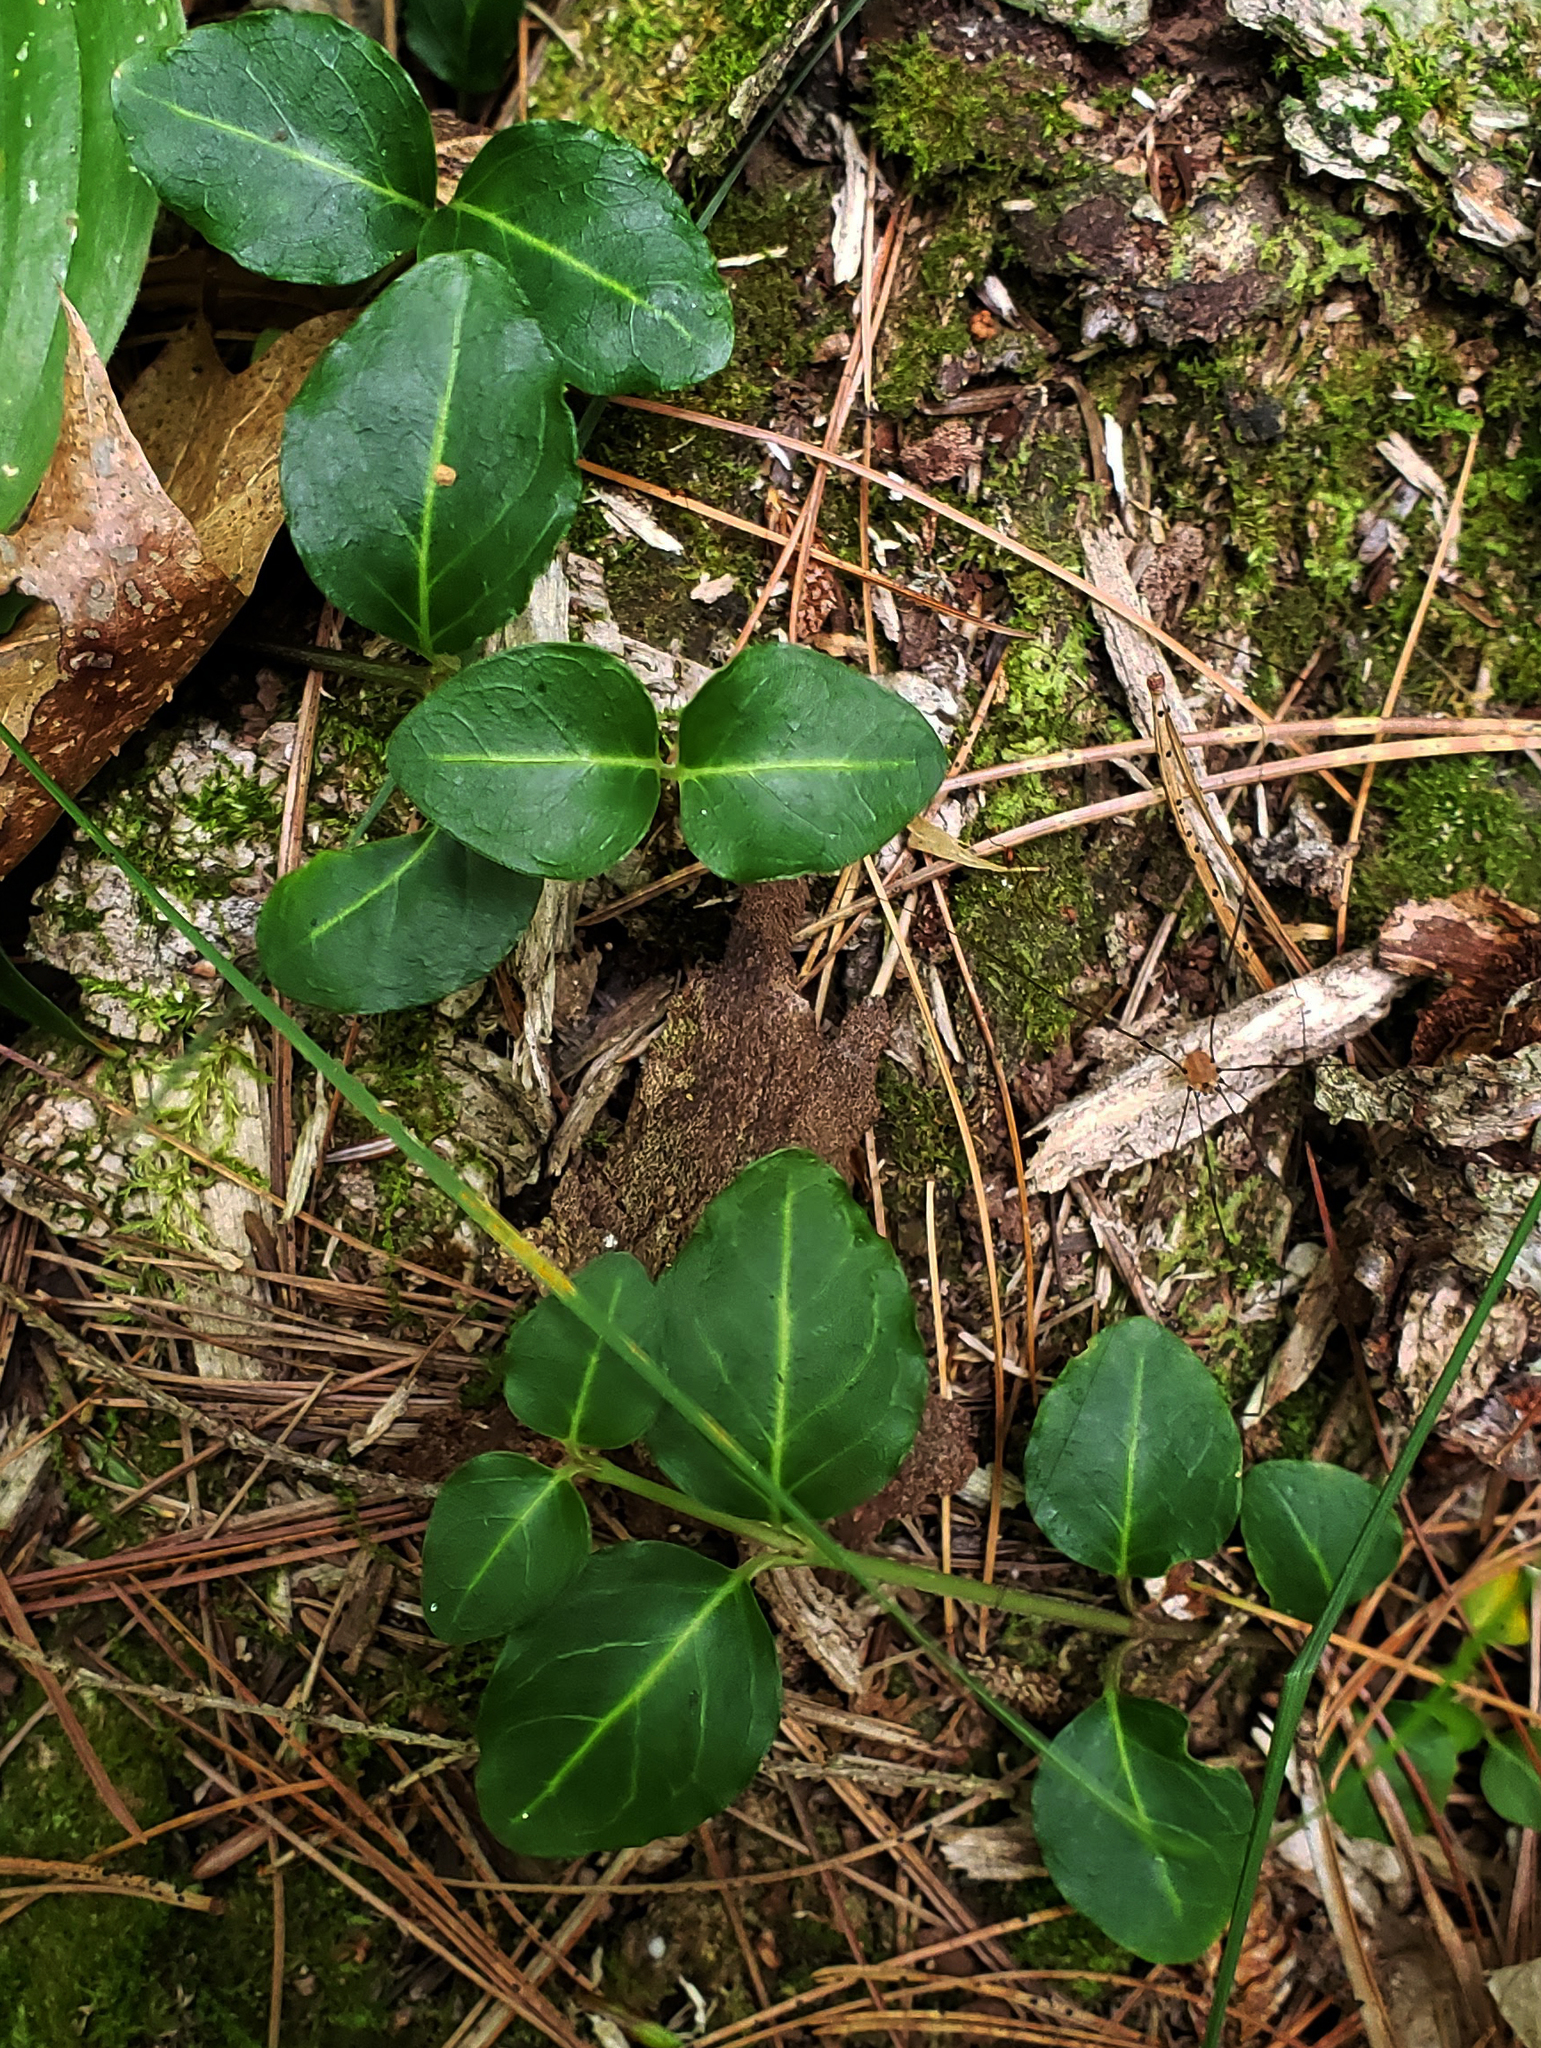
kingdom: Plantae
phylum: Tracheophyta
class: Magnoliopsida
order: Gentianales
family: Rubiaceae
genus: Mitchella
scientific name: Mitchella repens
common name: Partridge-berry
